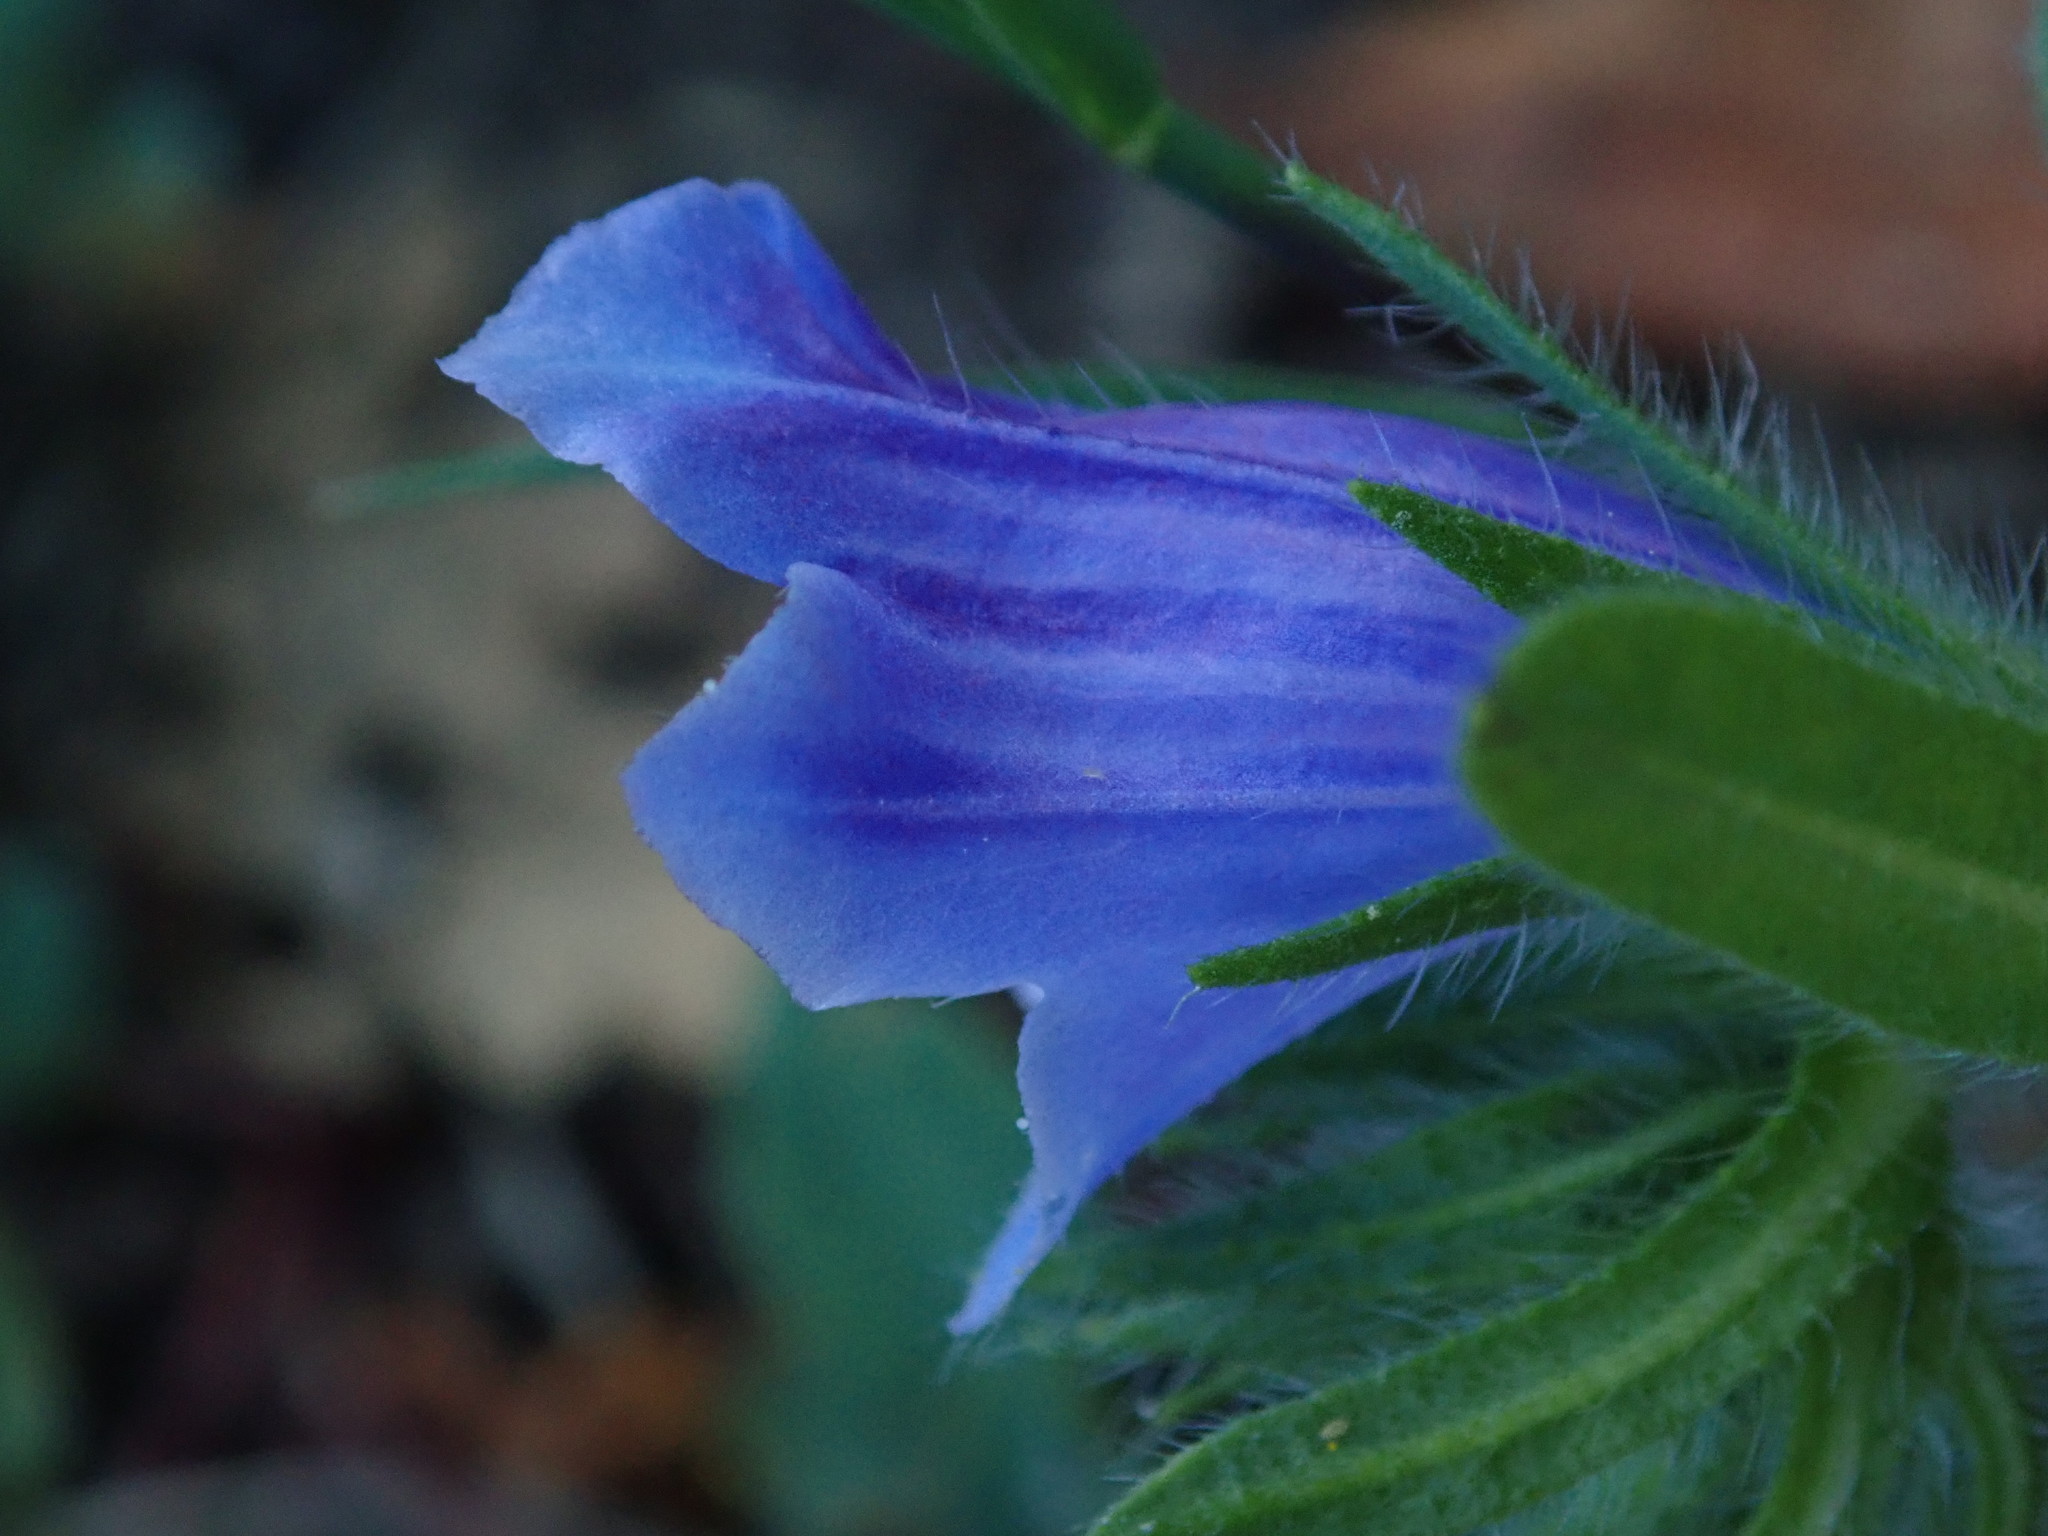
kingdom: Plantae
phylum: Tracheophyta
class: Magnoliopsida
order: Boraginales
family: Boraginaceae
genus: Echium
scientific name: Echium plantagineum
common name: Purple viper's-bugloss
